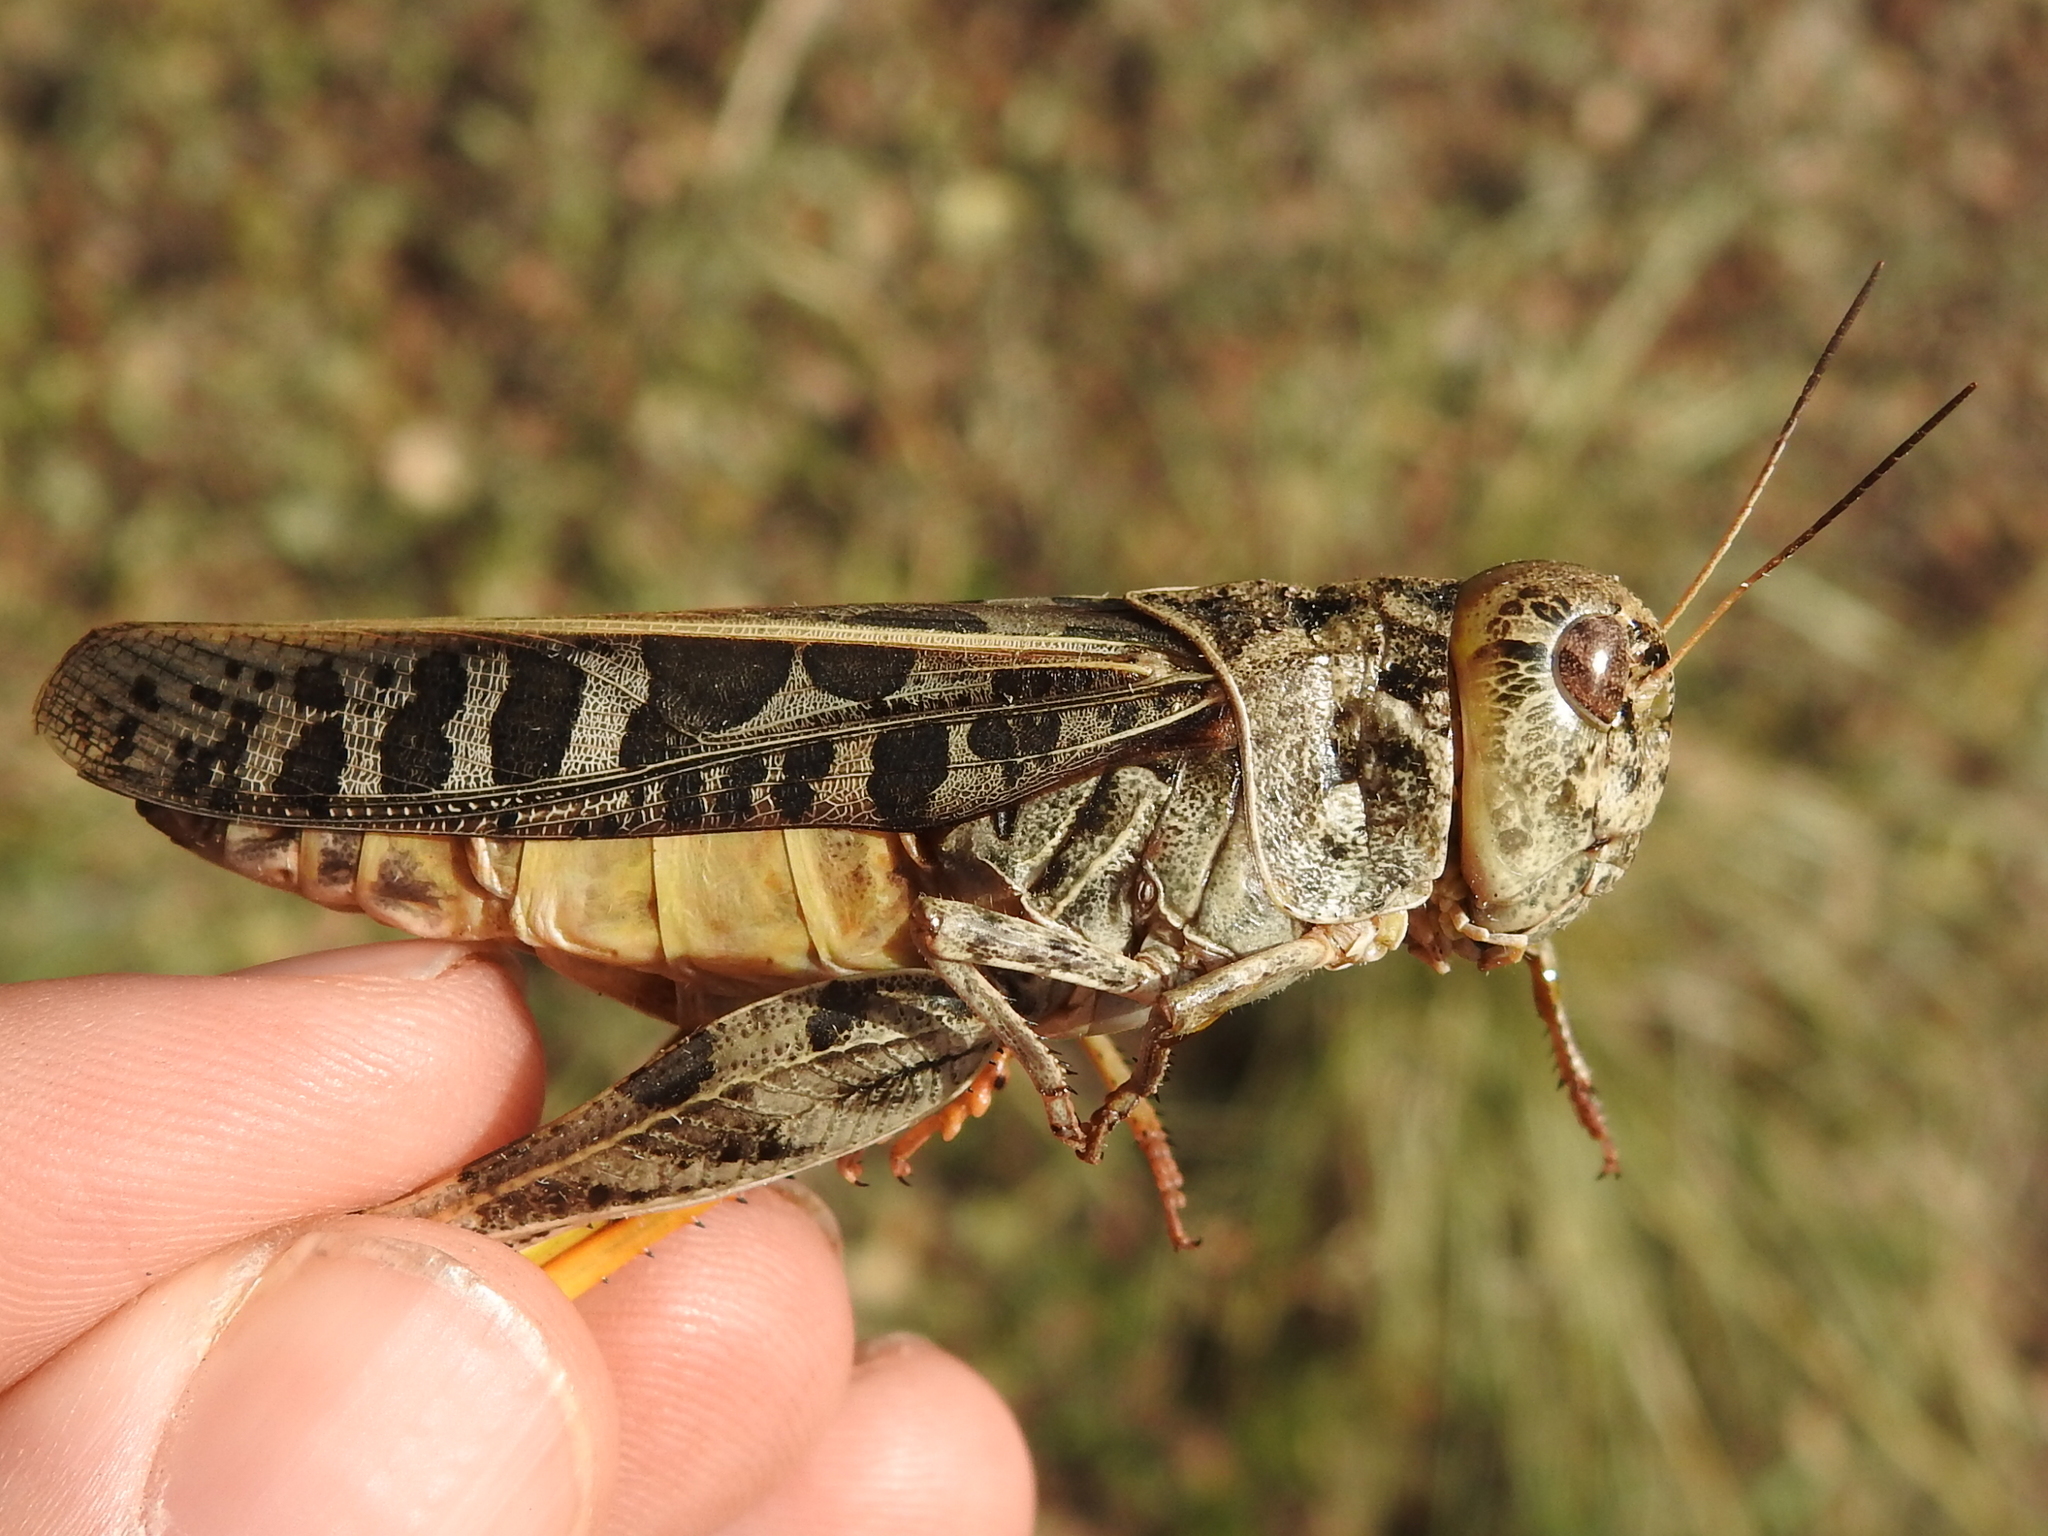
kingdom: Animalia
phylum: Arthropoda
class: Insecta
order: Orthoptera
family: Acrididae
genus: Hippiscus
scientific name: Hippiscus ocelote
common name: Wrinkled grasshopper
